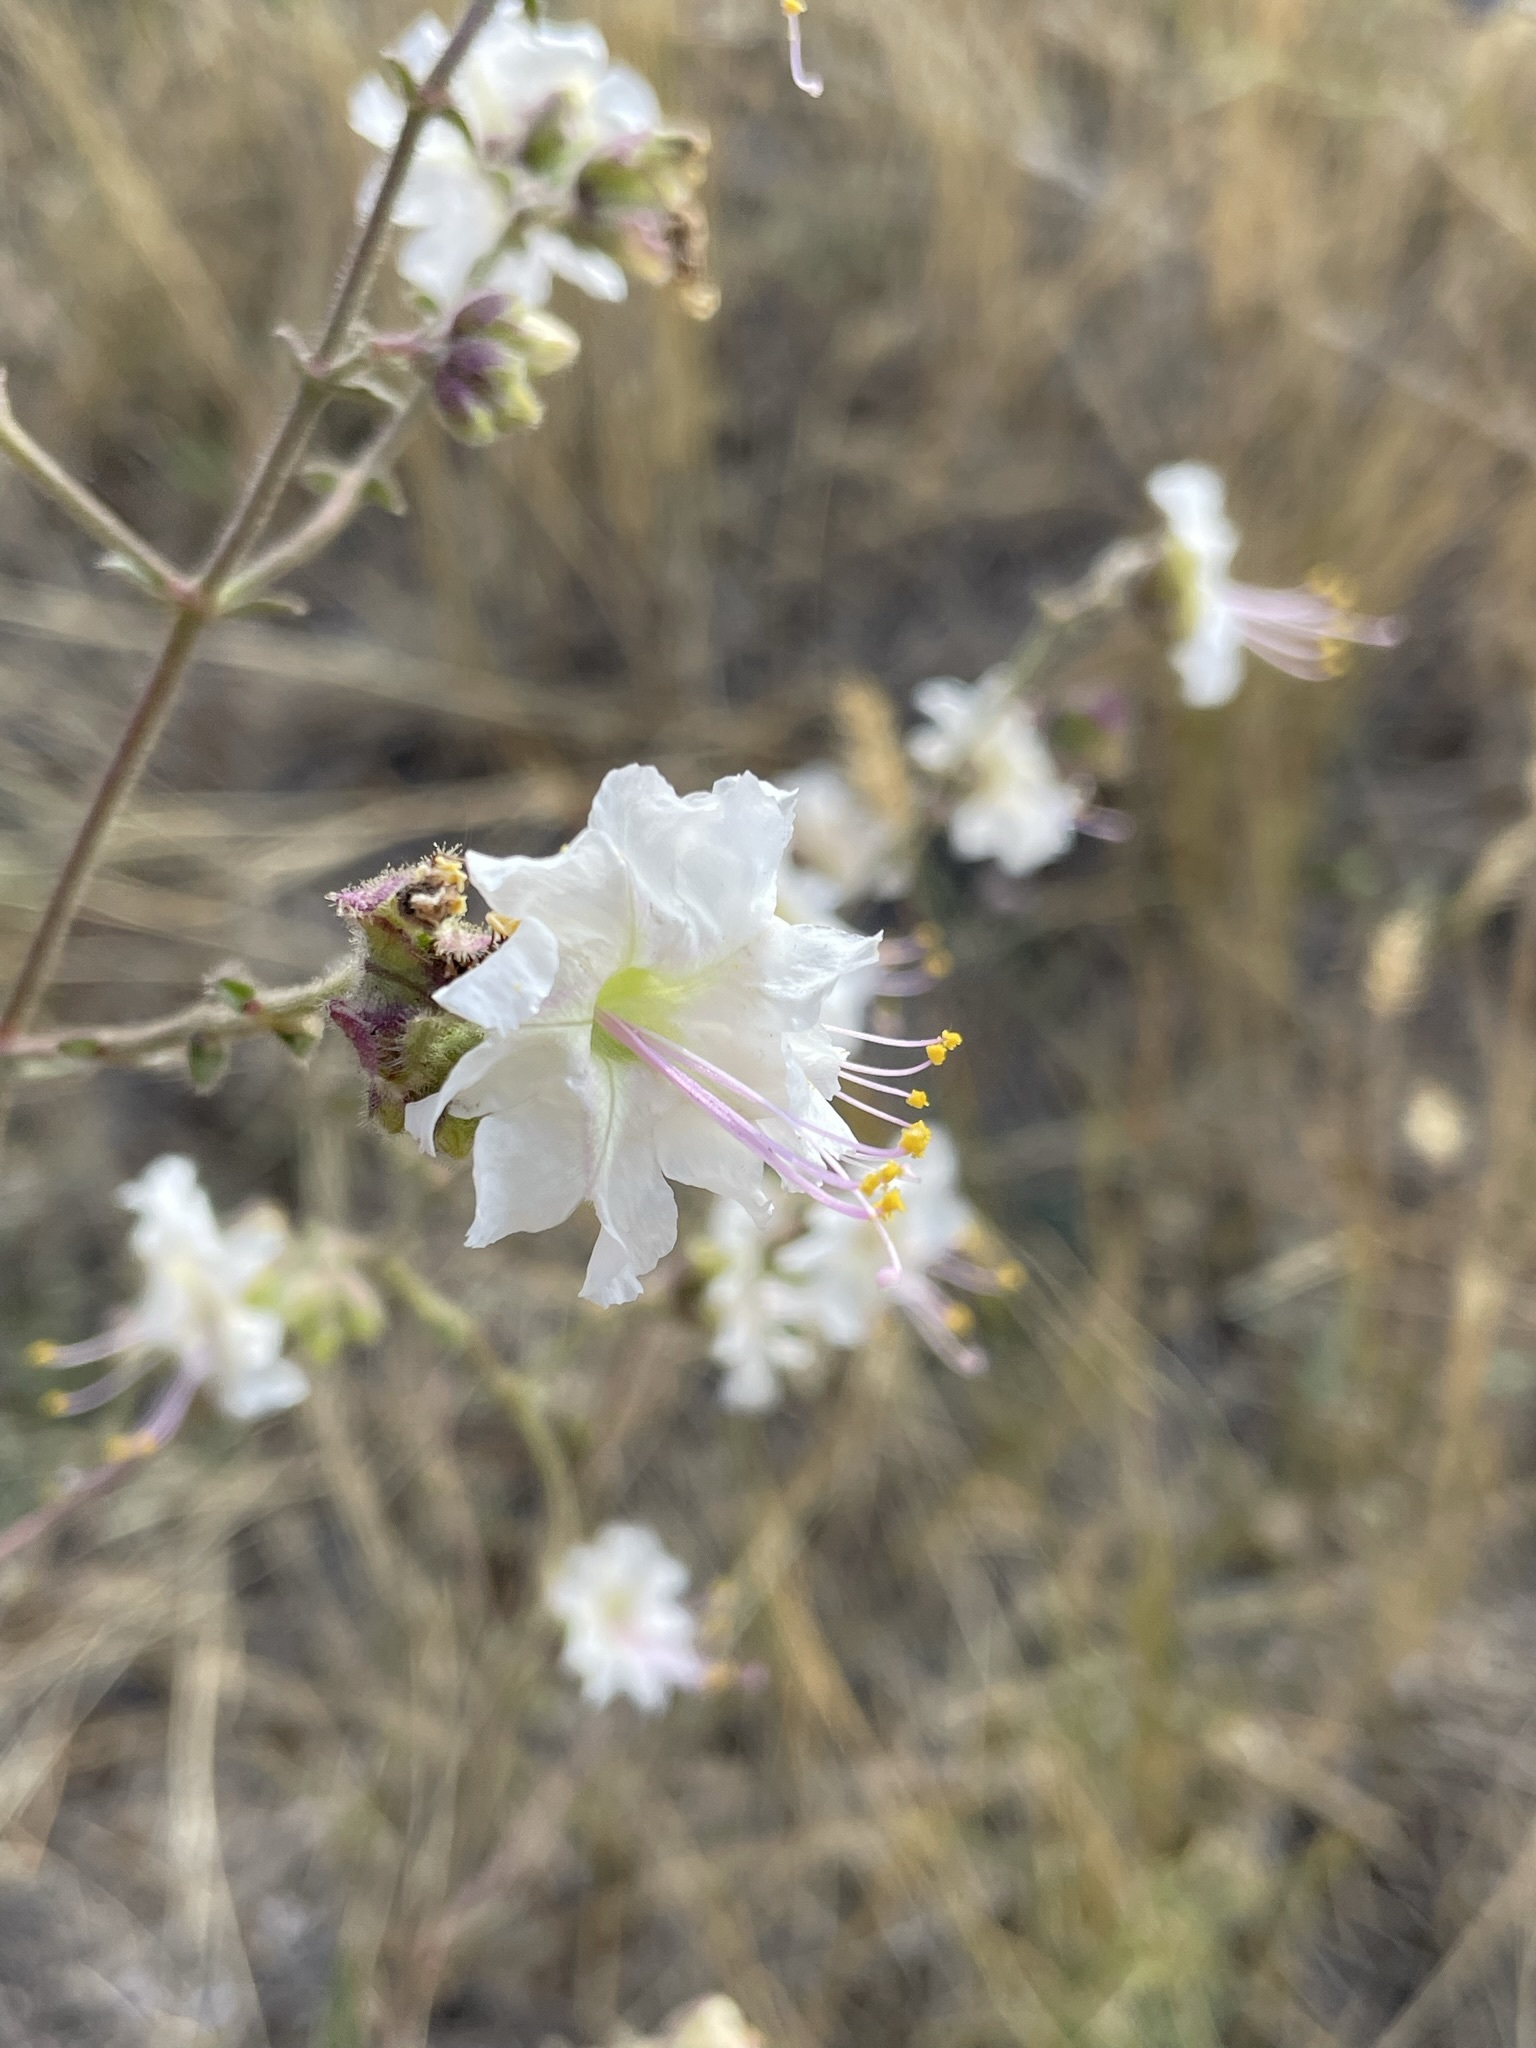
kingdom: Plantae
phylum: Tracheophyta
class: Magnoliopsida
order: Caryophyllales
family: Nyctaginaceae
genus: Mirabilis
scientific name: Mirabilis linearis
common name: Linear-leaved four-o'clock
